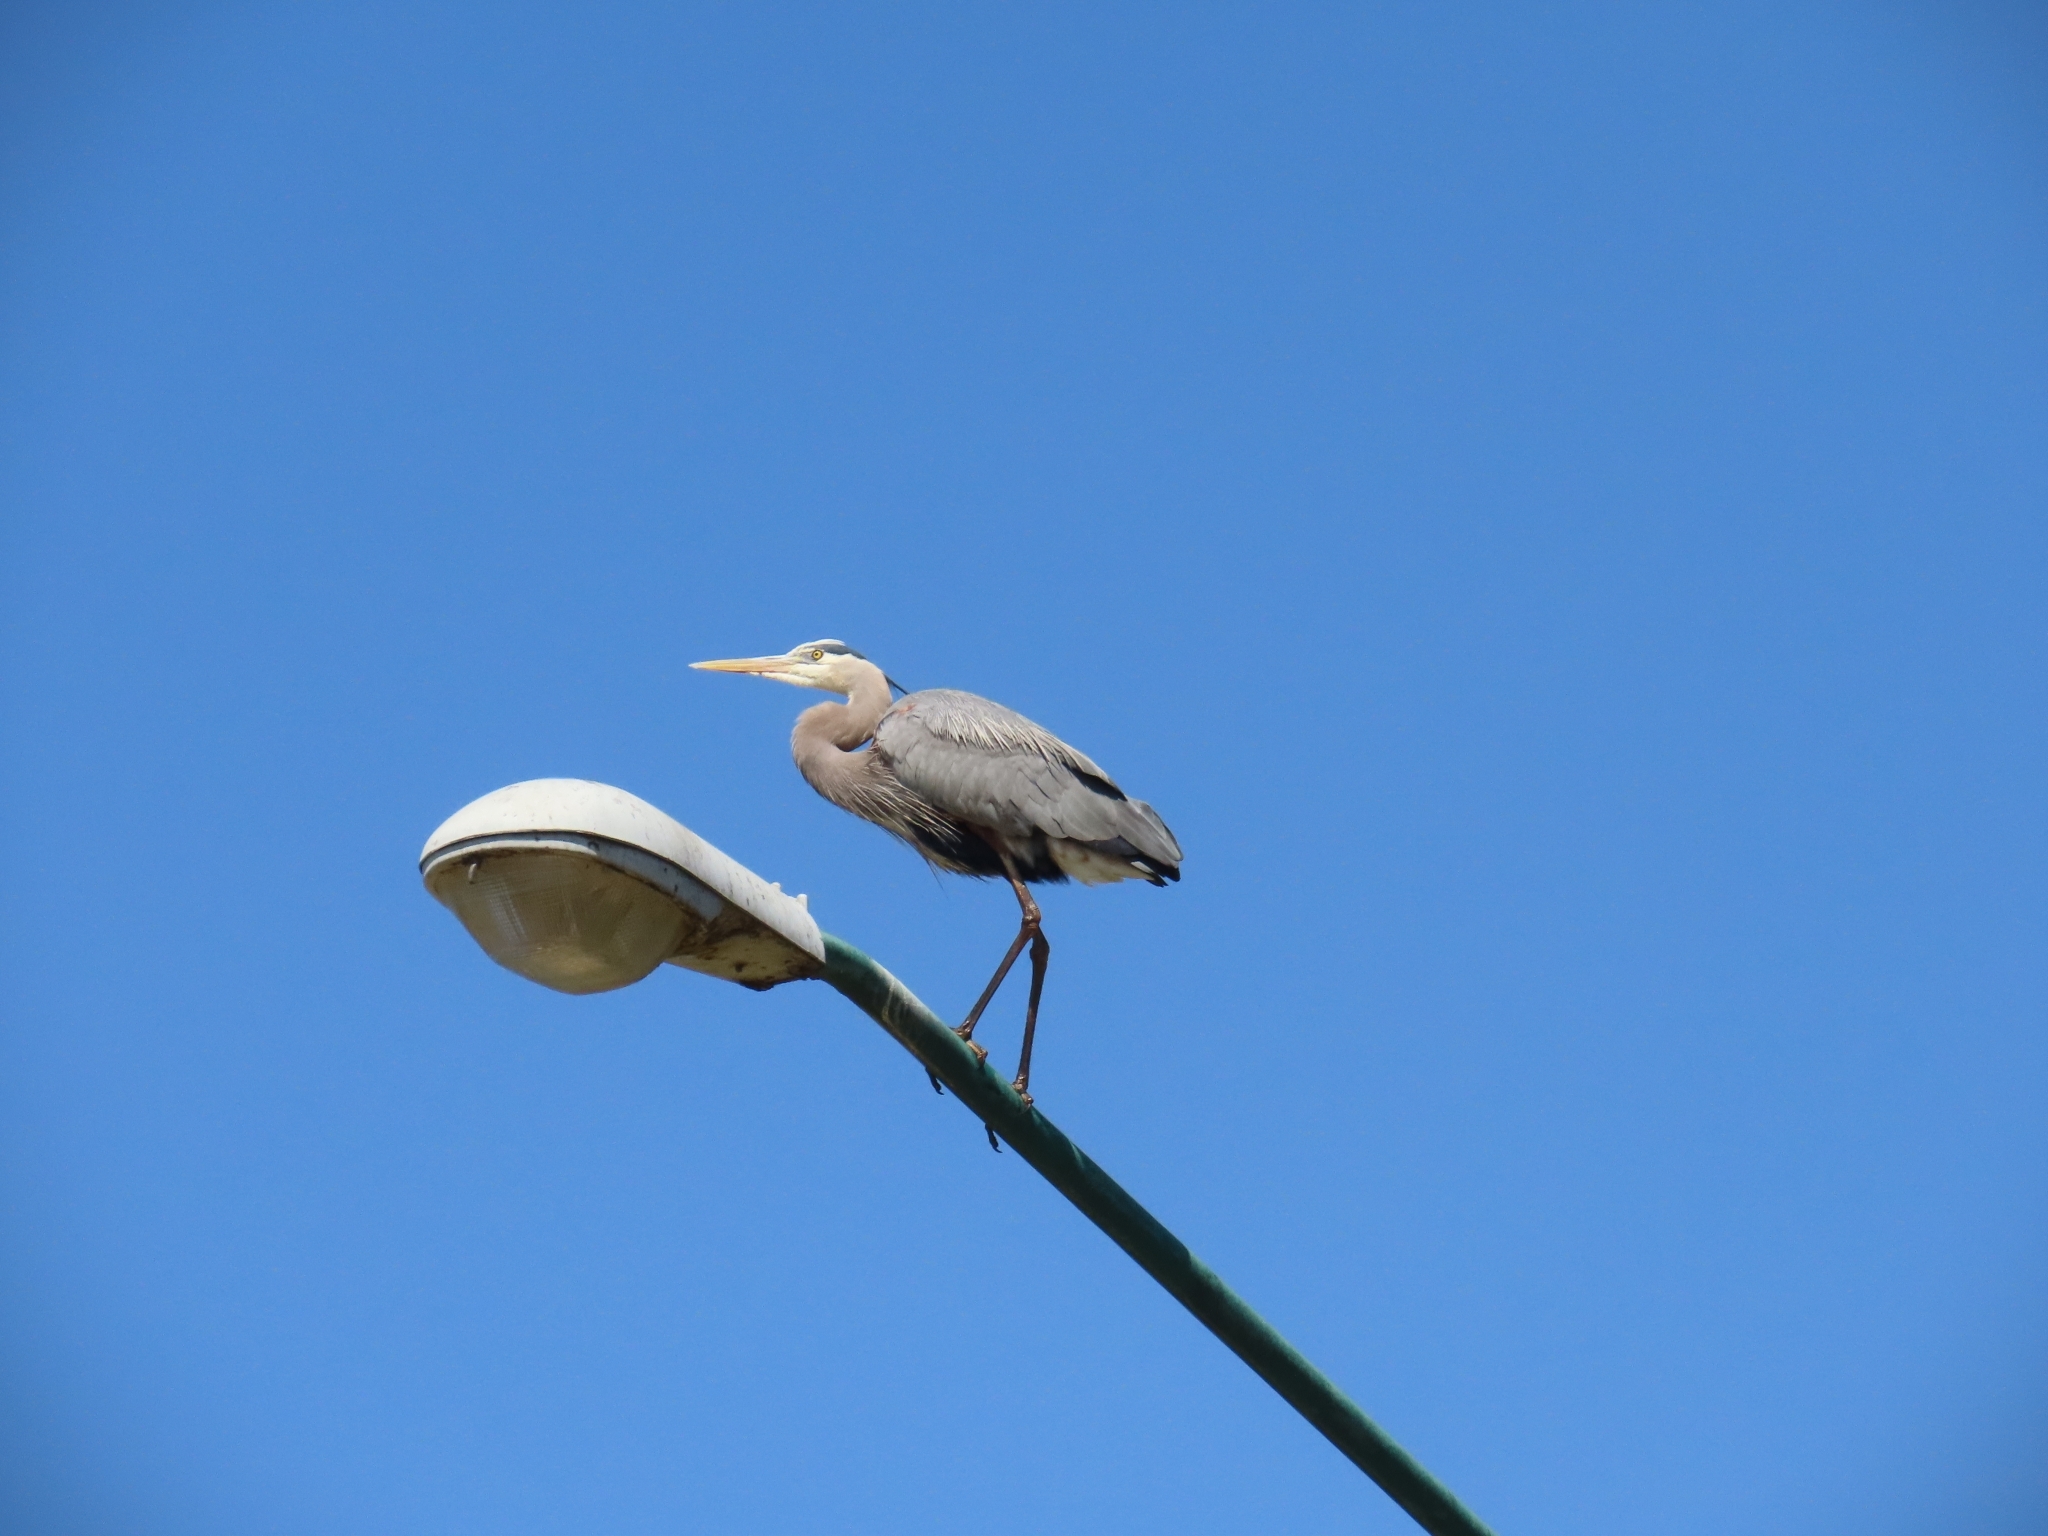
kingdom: Animalia
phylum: Chordata
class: Aves
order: Pelecaniformes
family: Ardeidae
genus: Ardea
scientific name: Ardea herodias
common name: Great blue heron
